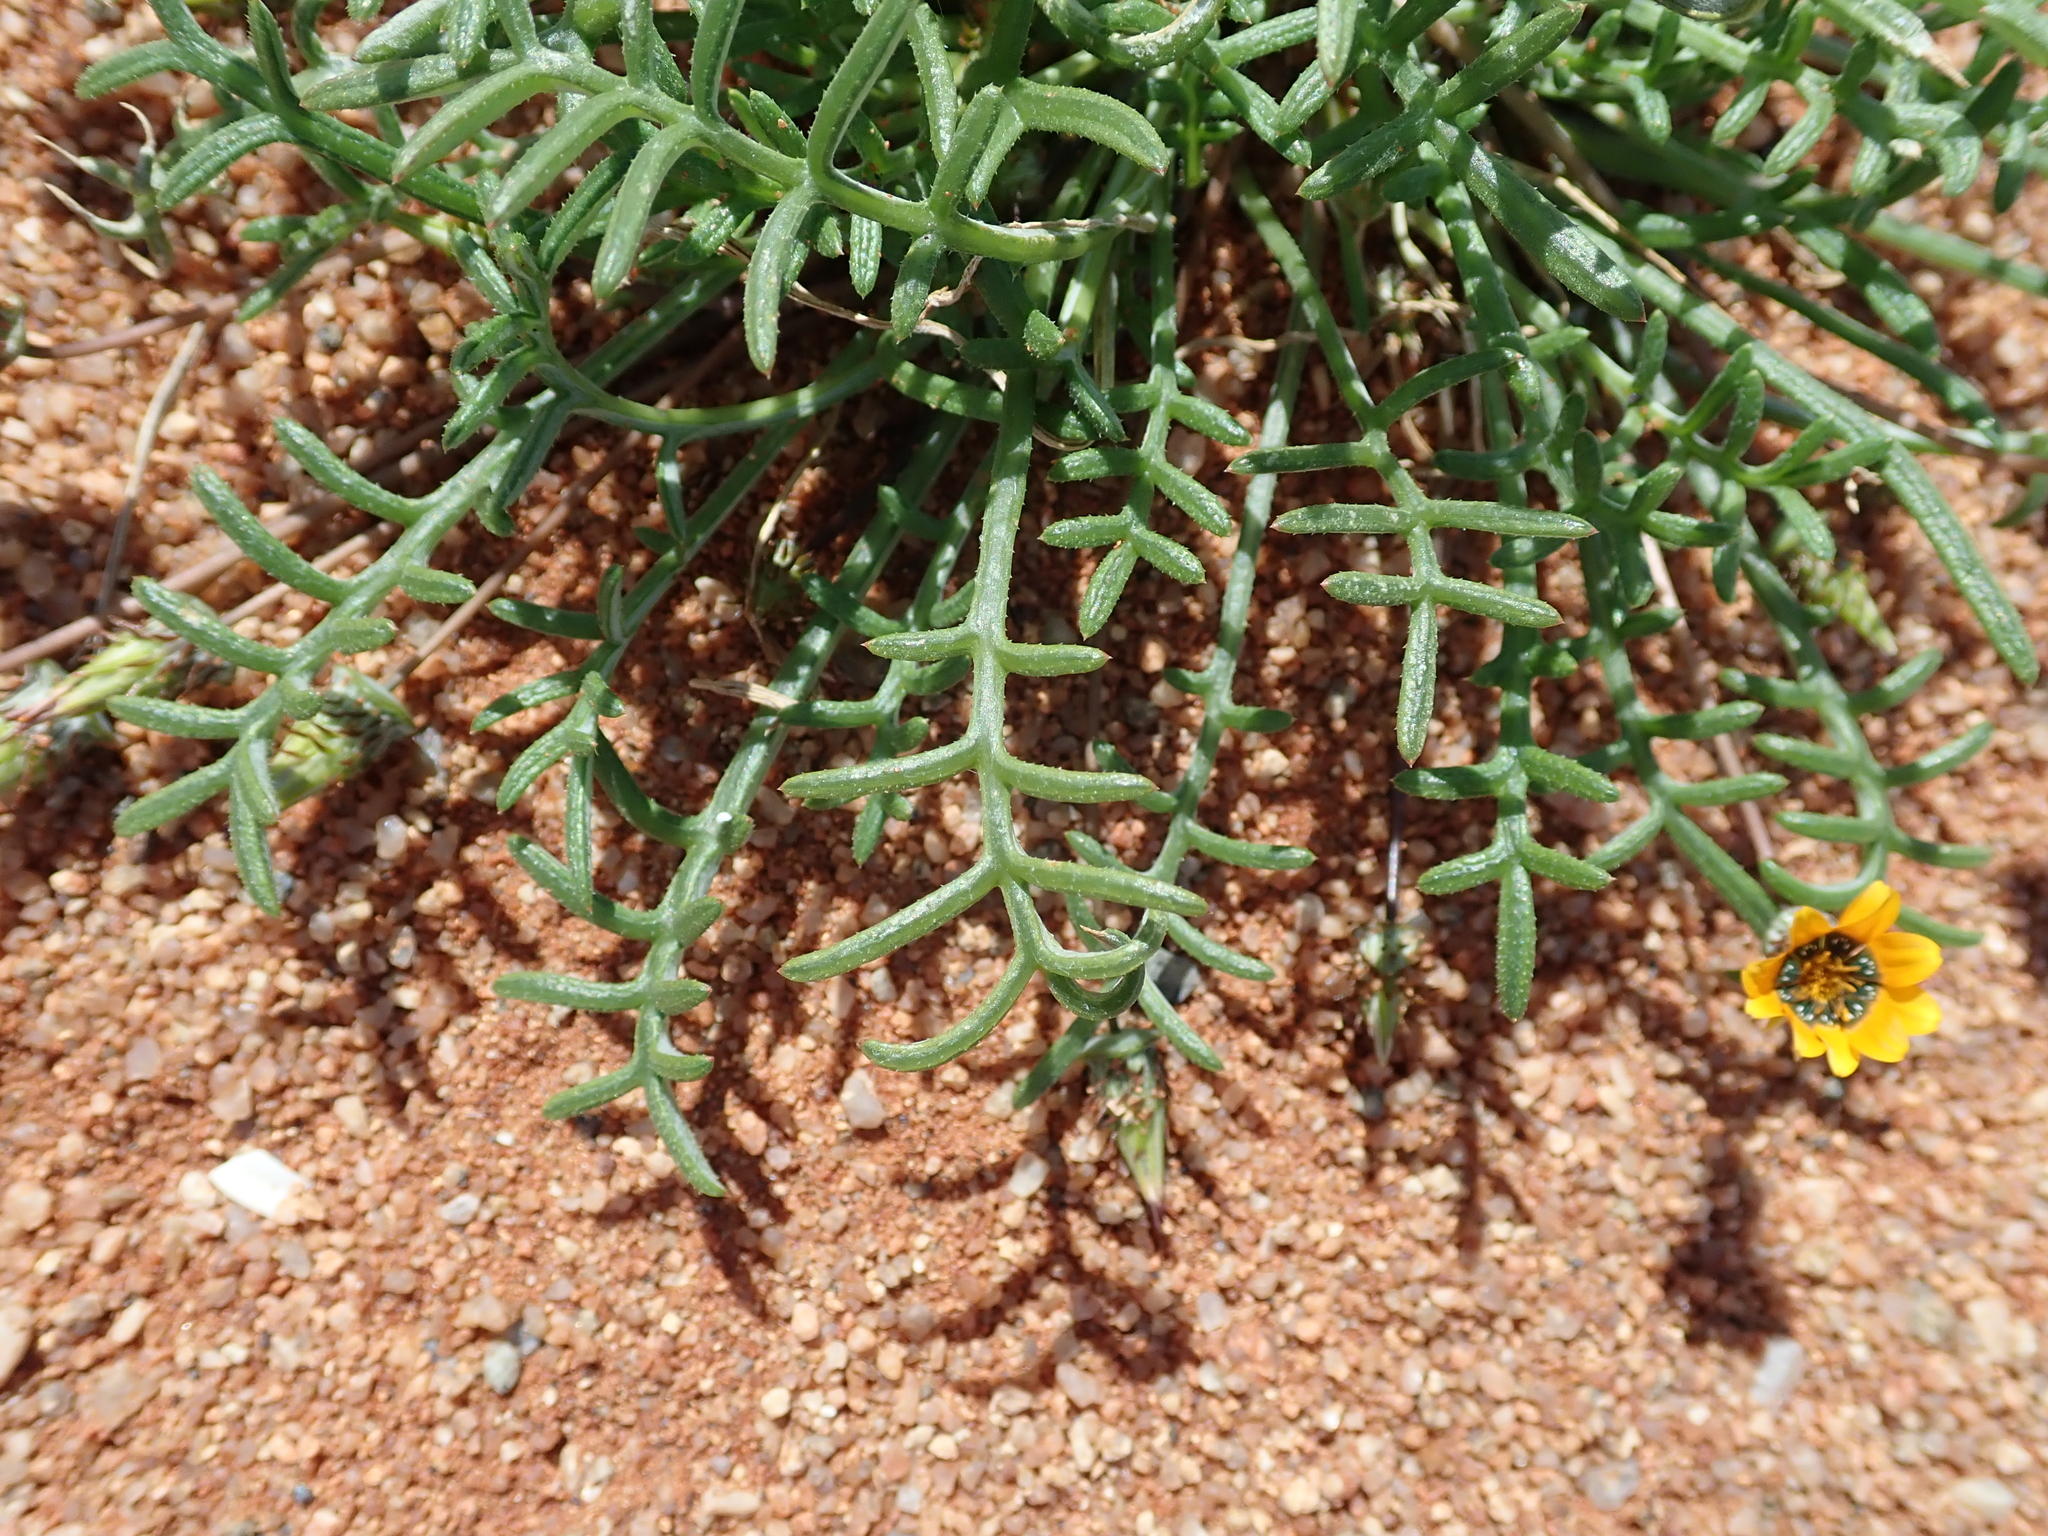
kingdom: Plantae
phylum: Tracheophyta
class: Magnoliopsida
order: Asterales
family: Asteraceae
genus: Gazania
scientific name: Gazania tenuifolia
